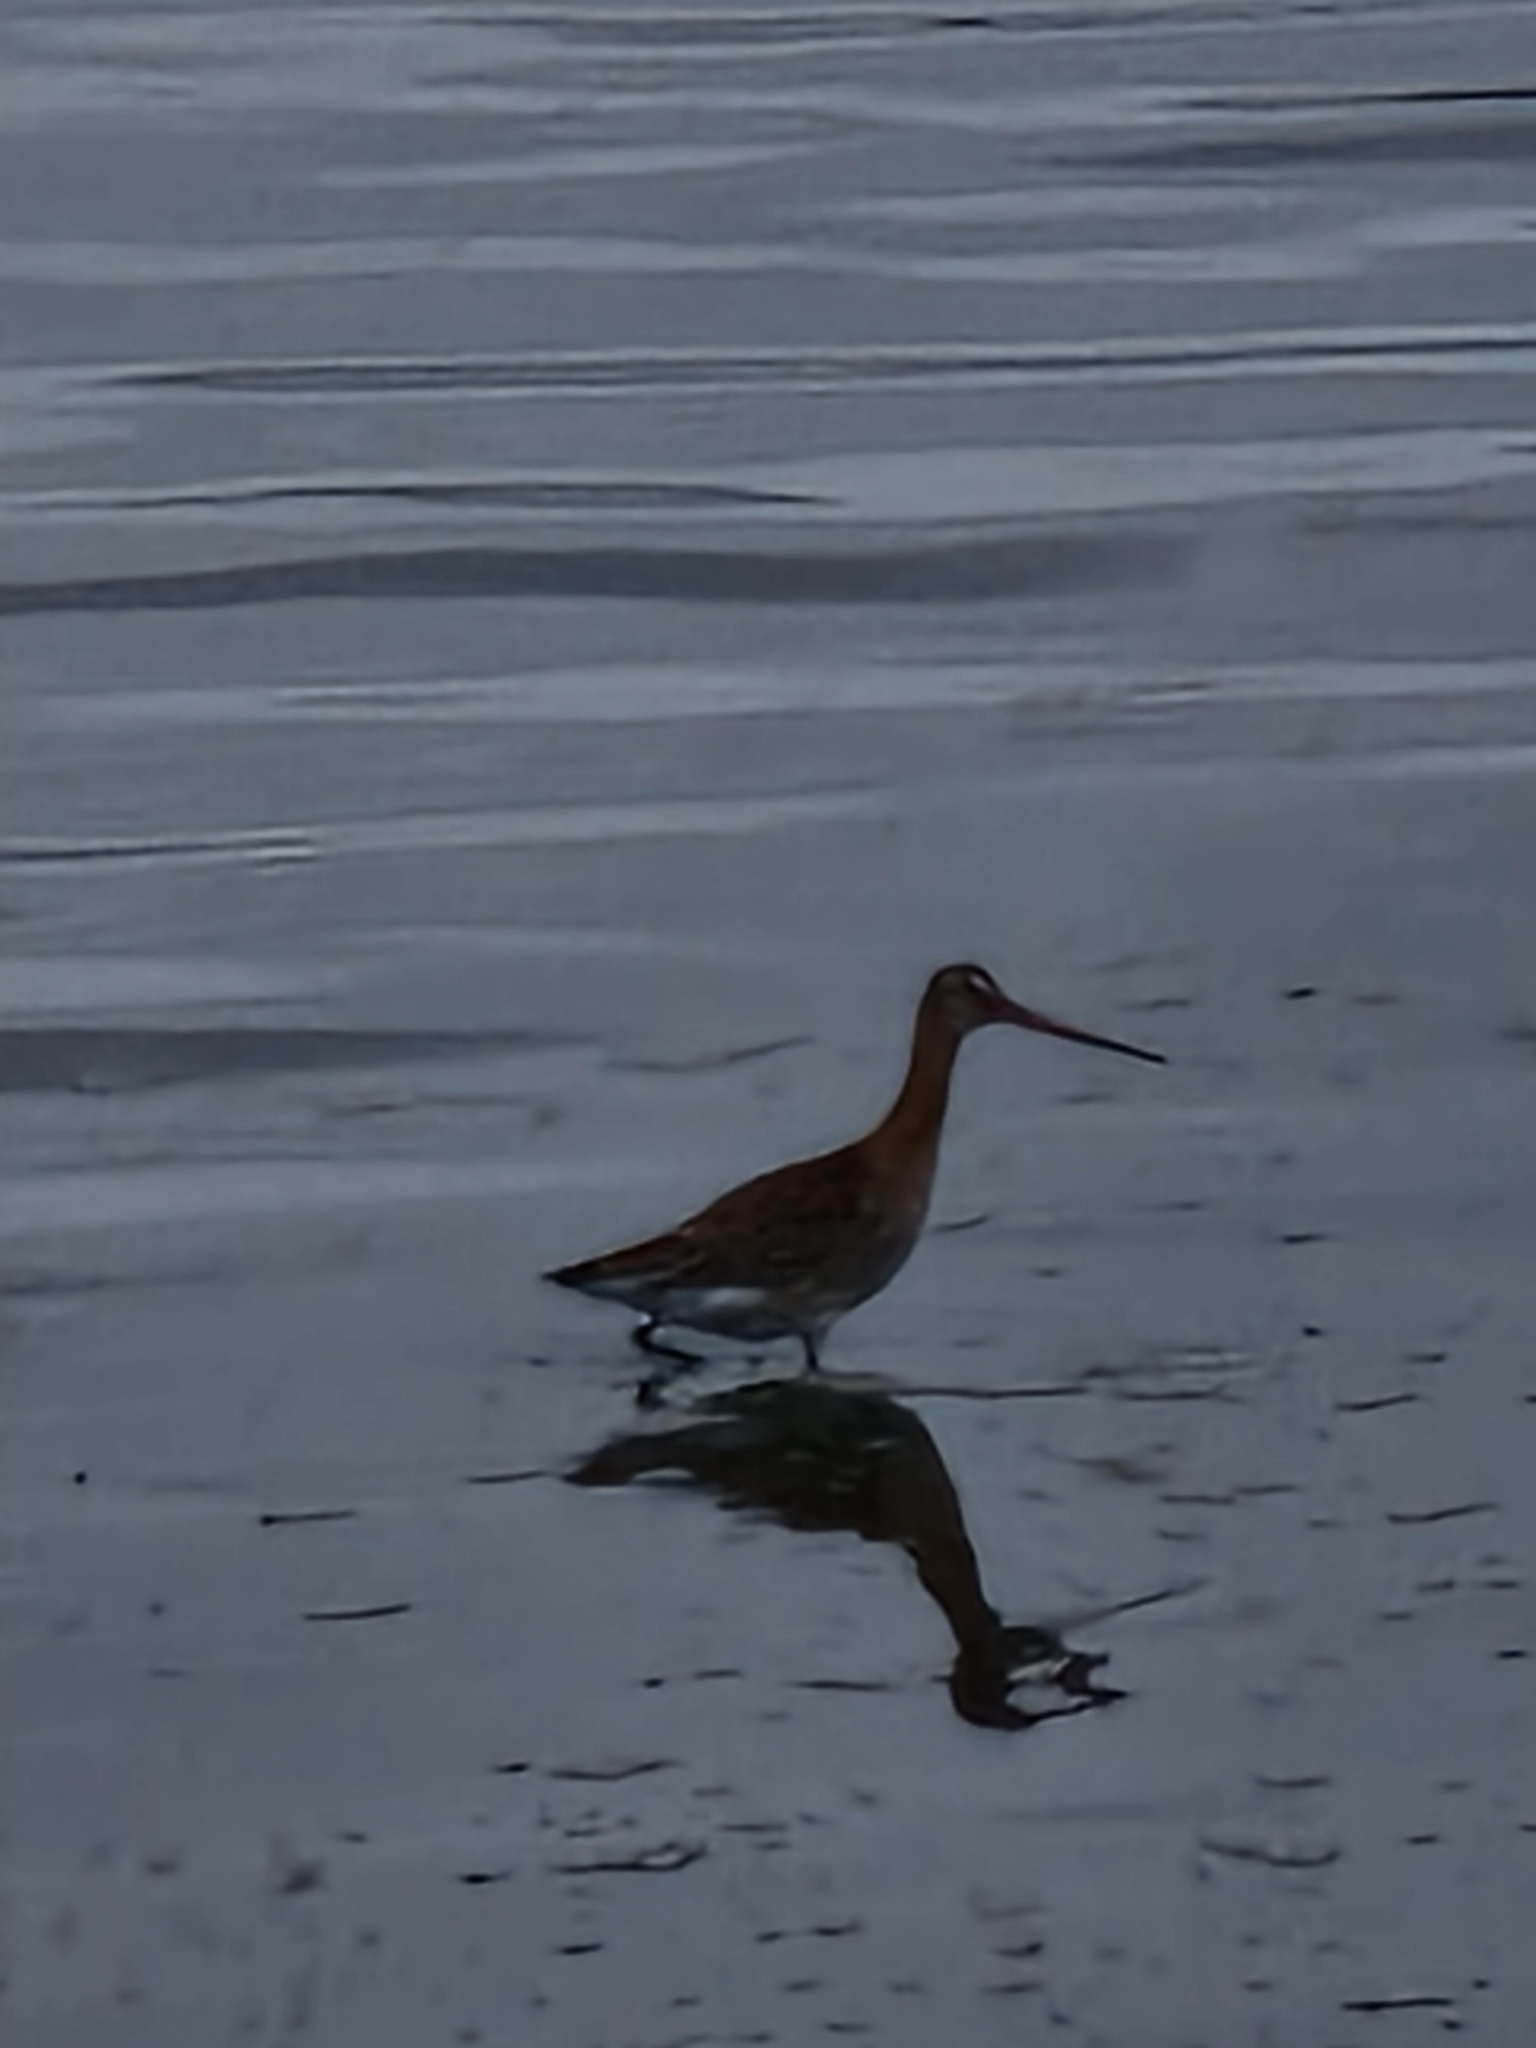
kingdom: Animalia
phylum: Chordata
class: Aves
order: Charadriiformes
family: Scolopacidae
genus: Limosa
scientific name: Limosa limosa
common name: Black-tailed godwit
